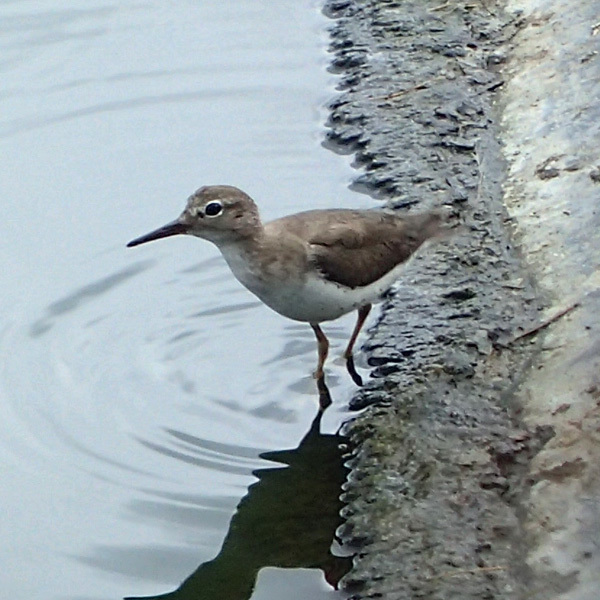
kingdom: Animalia
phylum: Chordata
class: Aves
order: Charadriiformes
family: Scolopacidae
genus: Actitis
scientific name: Actitis macularius
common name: Spotted sandpiper
